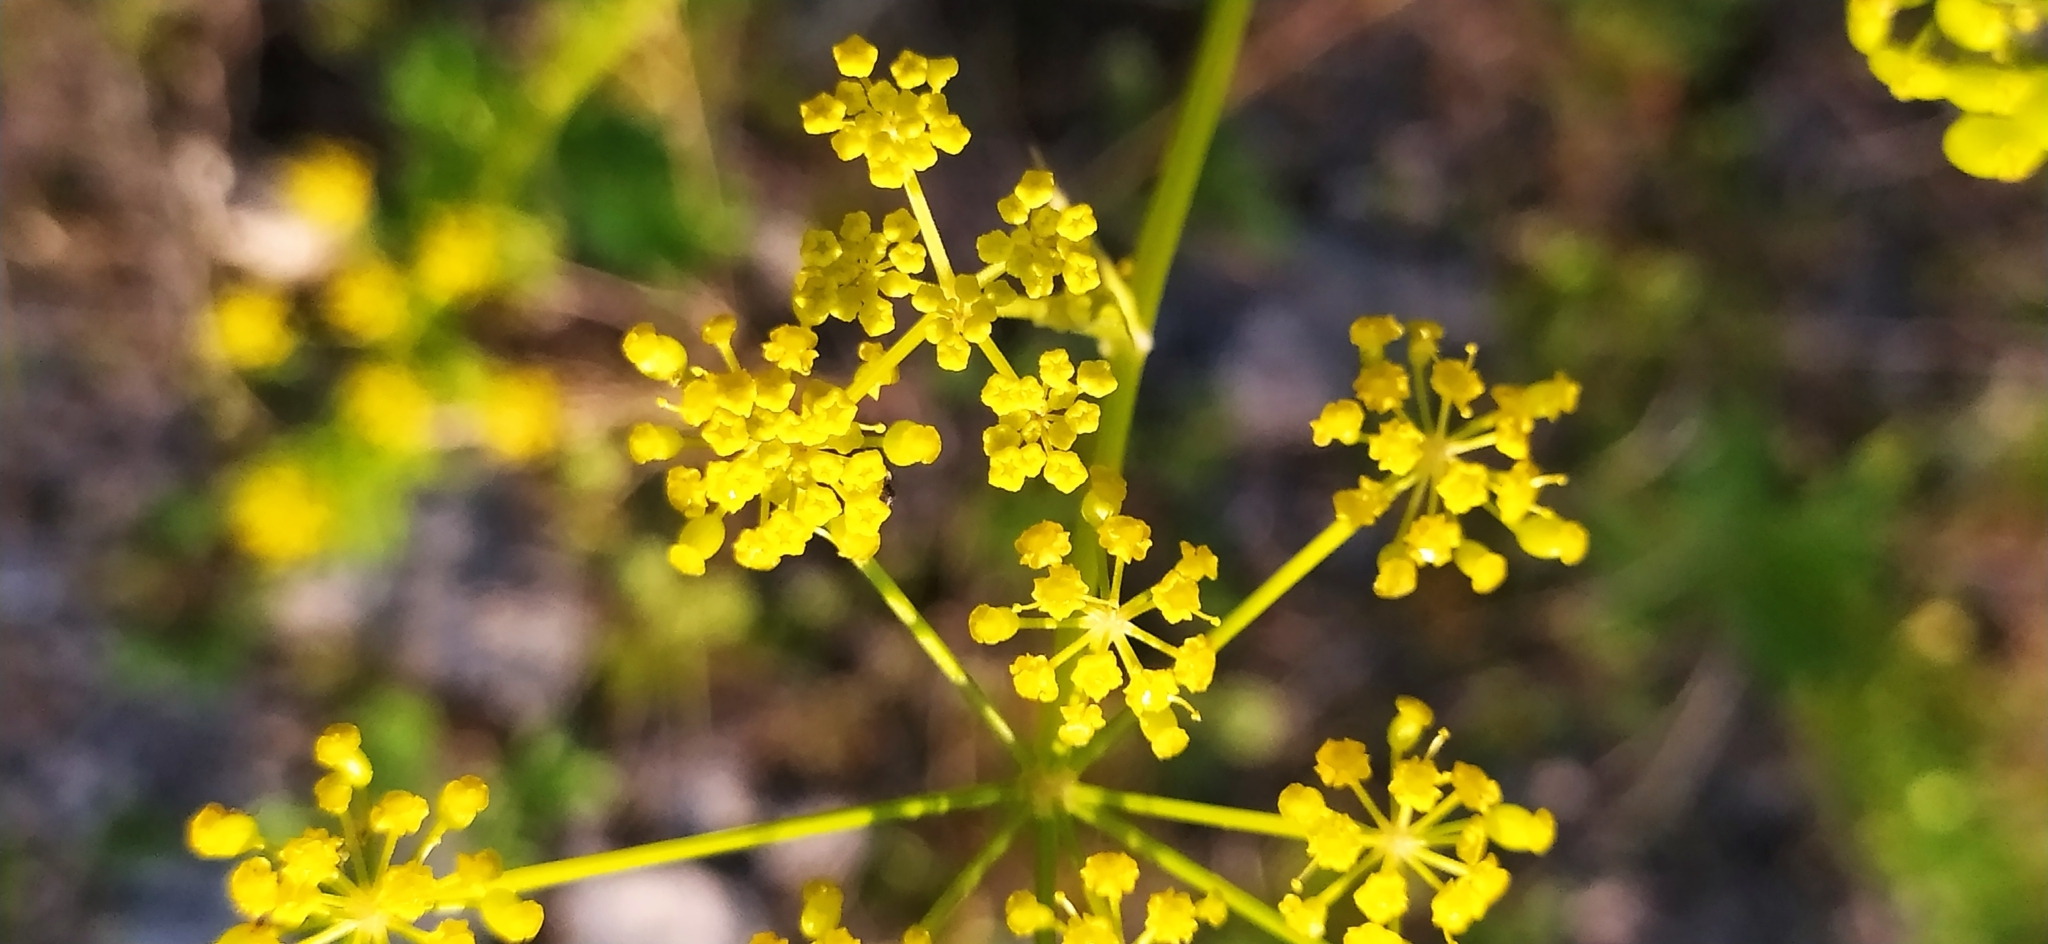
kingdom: Plantae
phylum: Tracheophyta
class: Magnoliopsida
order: Apiales
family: Apiaceae
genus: Pastinaca
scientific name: Pastinaca sativa
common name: Wild parsnip
